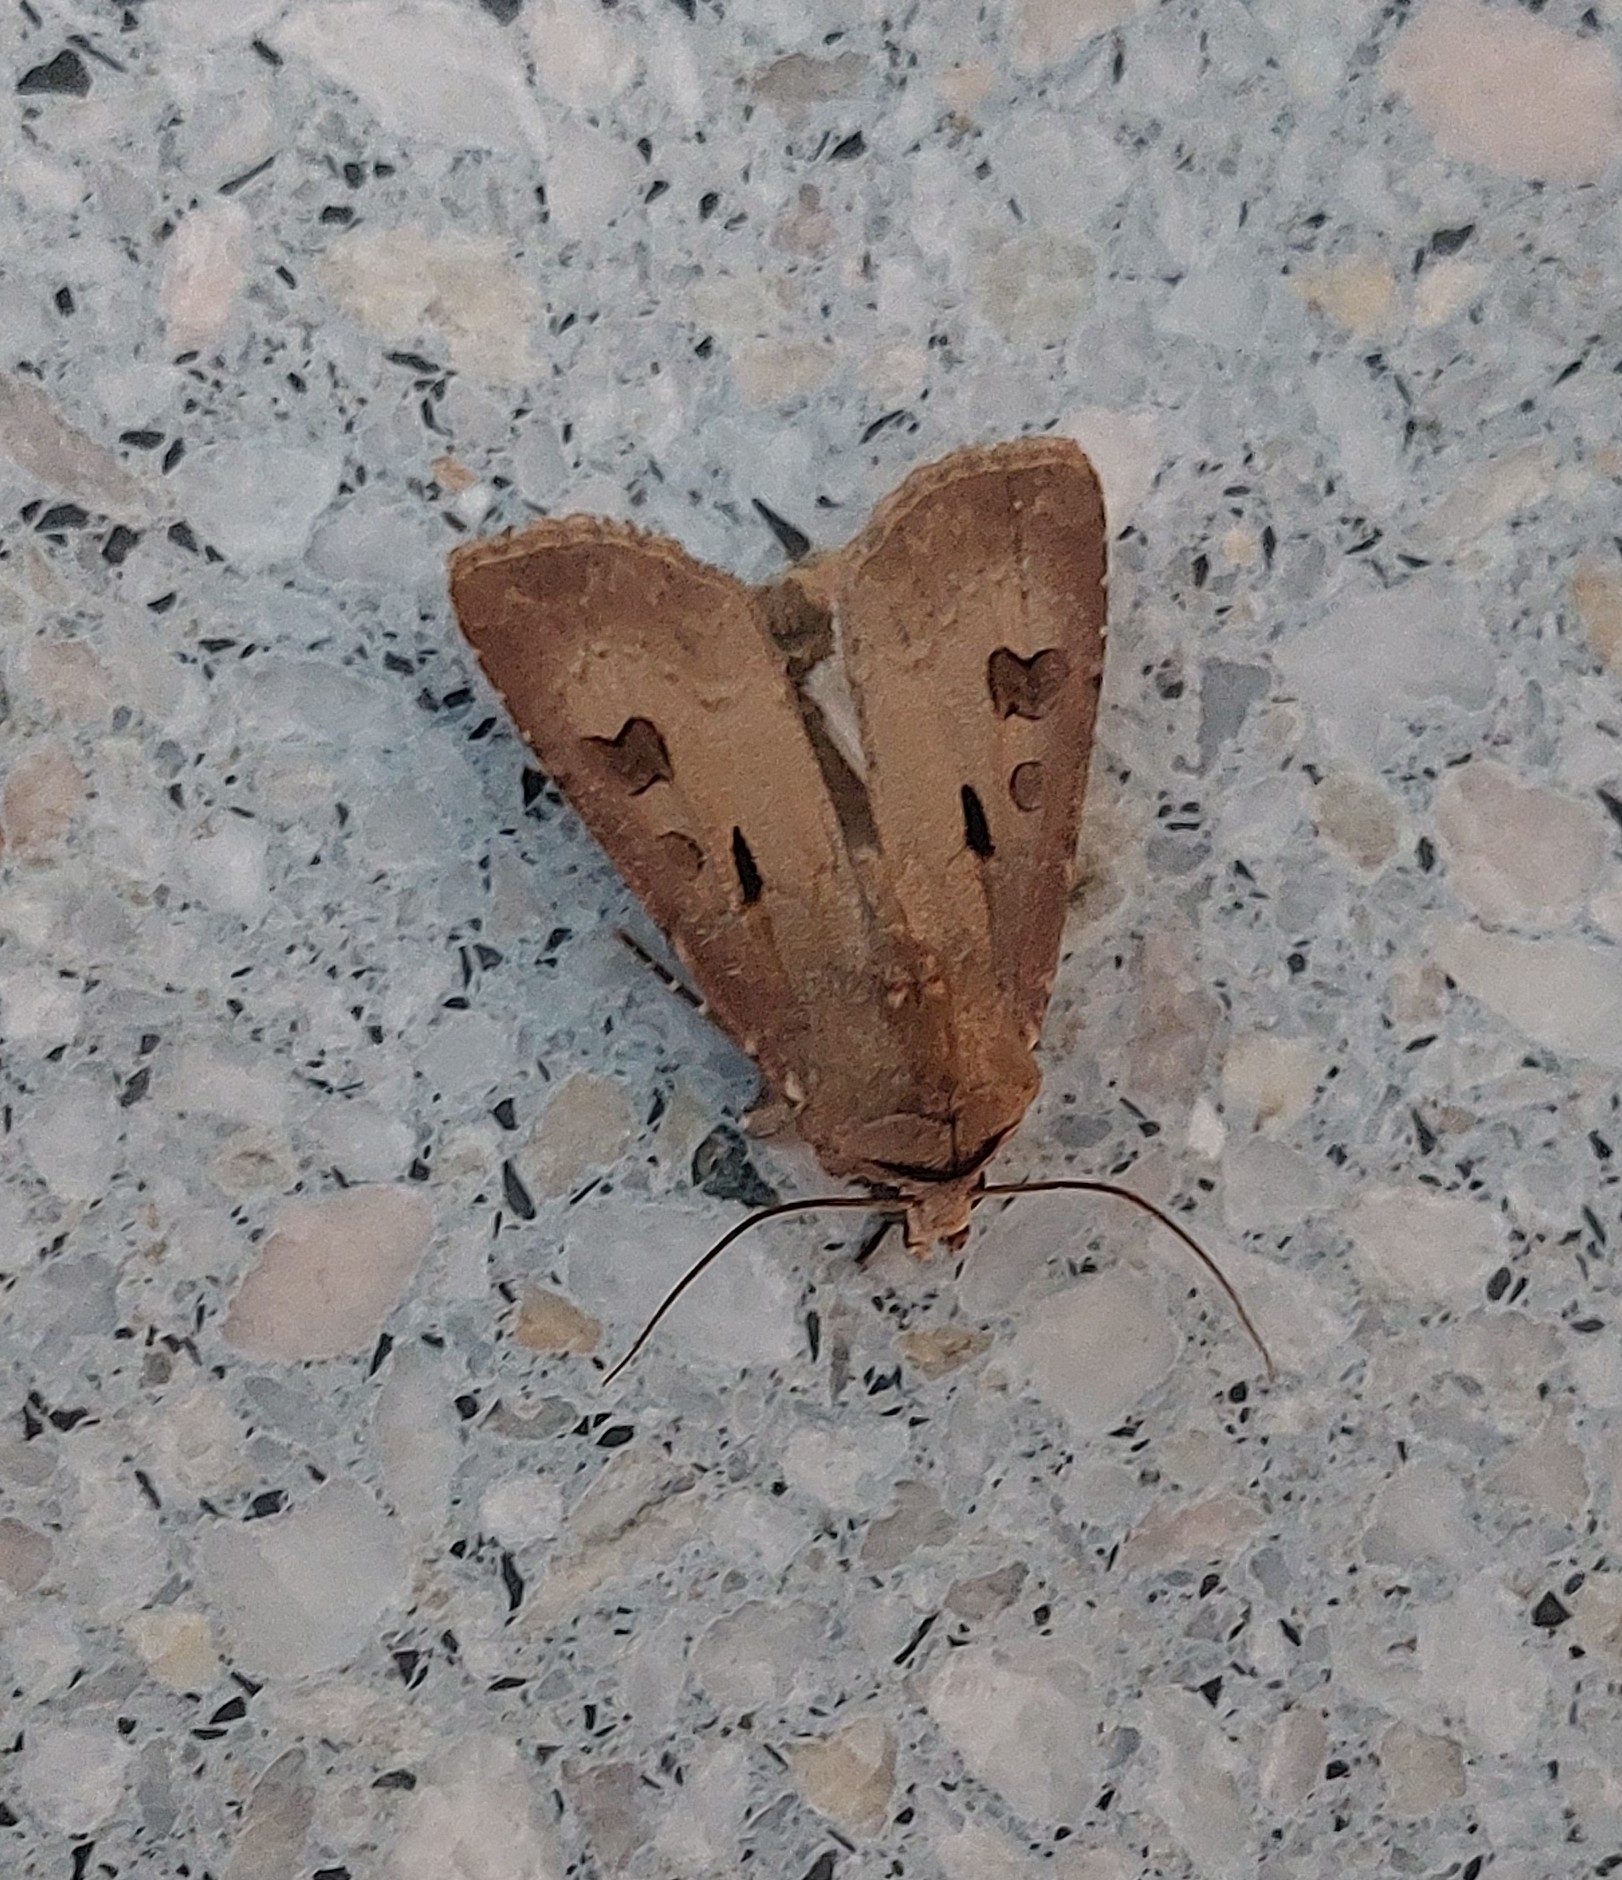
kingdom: Animalia
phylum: Arthropoda
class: Insecta
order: Lepidoptera
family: Noctuidae
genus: Agrotis
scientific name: Agrotis exclamationis
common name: Heart and dart
